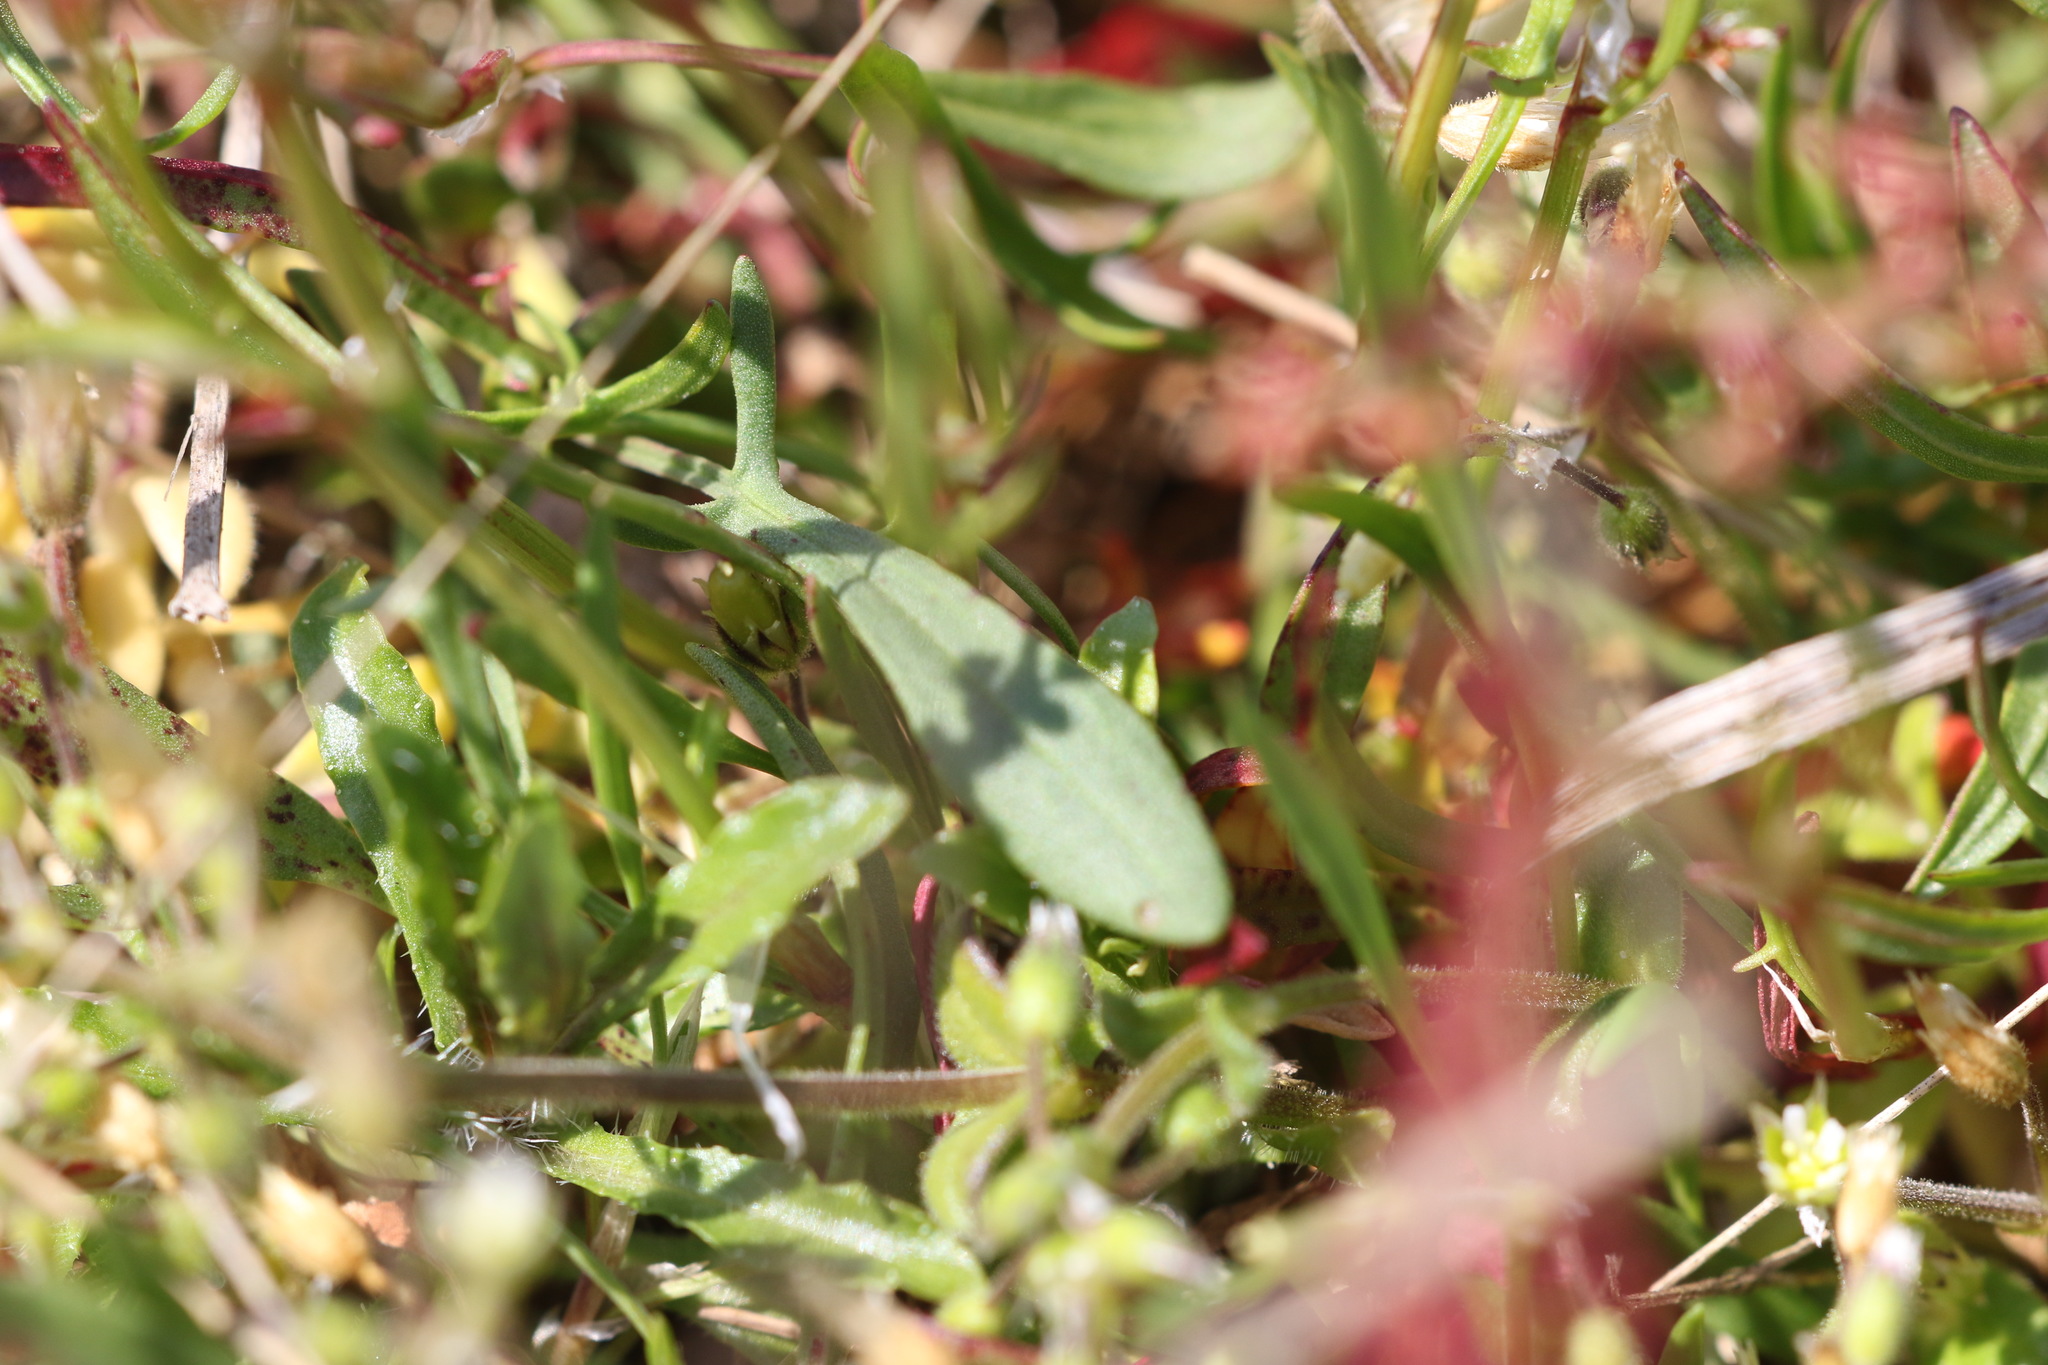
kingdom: Plantae
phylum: Tracheophyta
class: Magnoliopsida
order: Caryophyllales
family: Polygonaceae
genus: Rumex
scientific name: Rumex acetosella
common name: Common sheep sorrel
